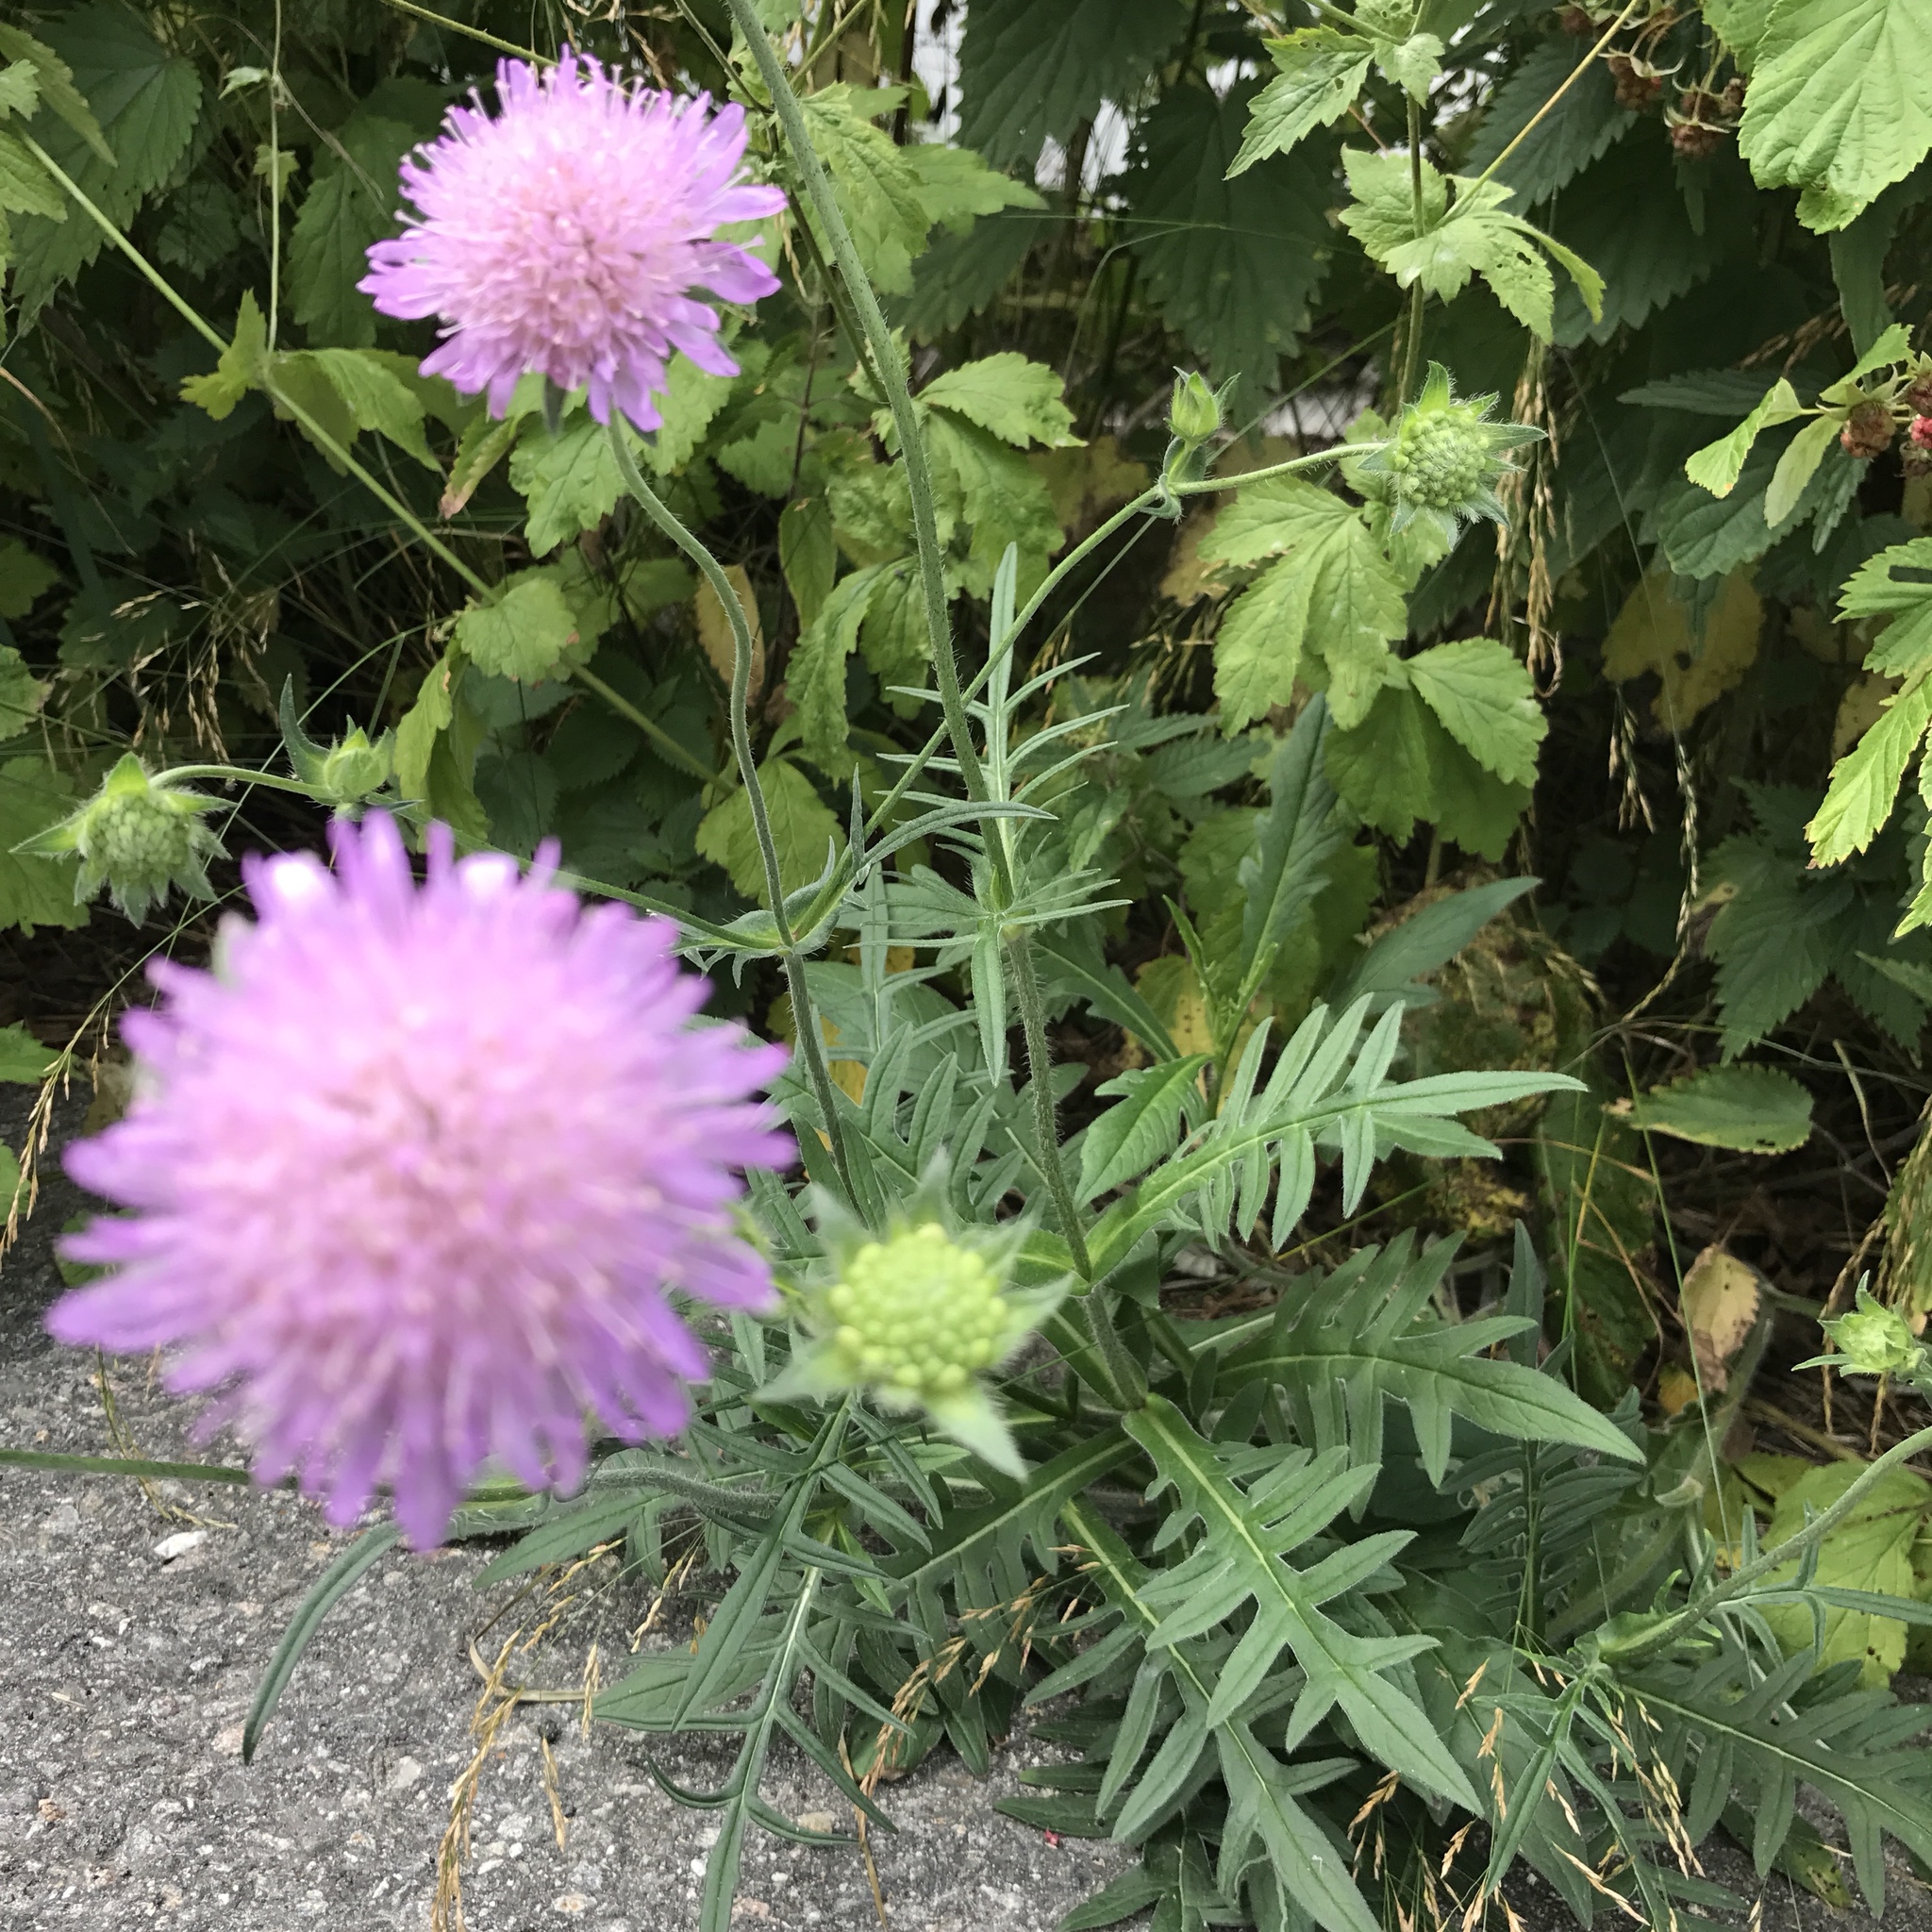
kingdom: Plantae
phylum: Tracheophyta
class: Magnoliopsida
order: Dipsacales
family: Caprifoliaceae
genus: Knautia
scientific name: Knautia arvensis
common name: Field scabiosa
